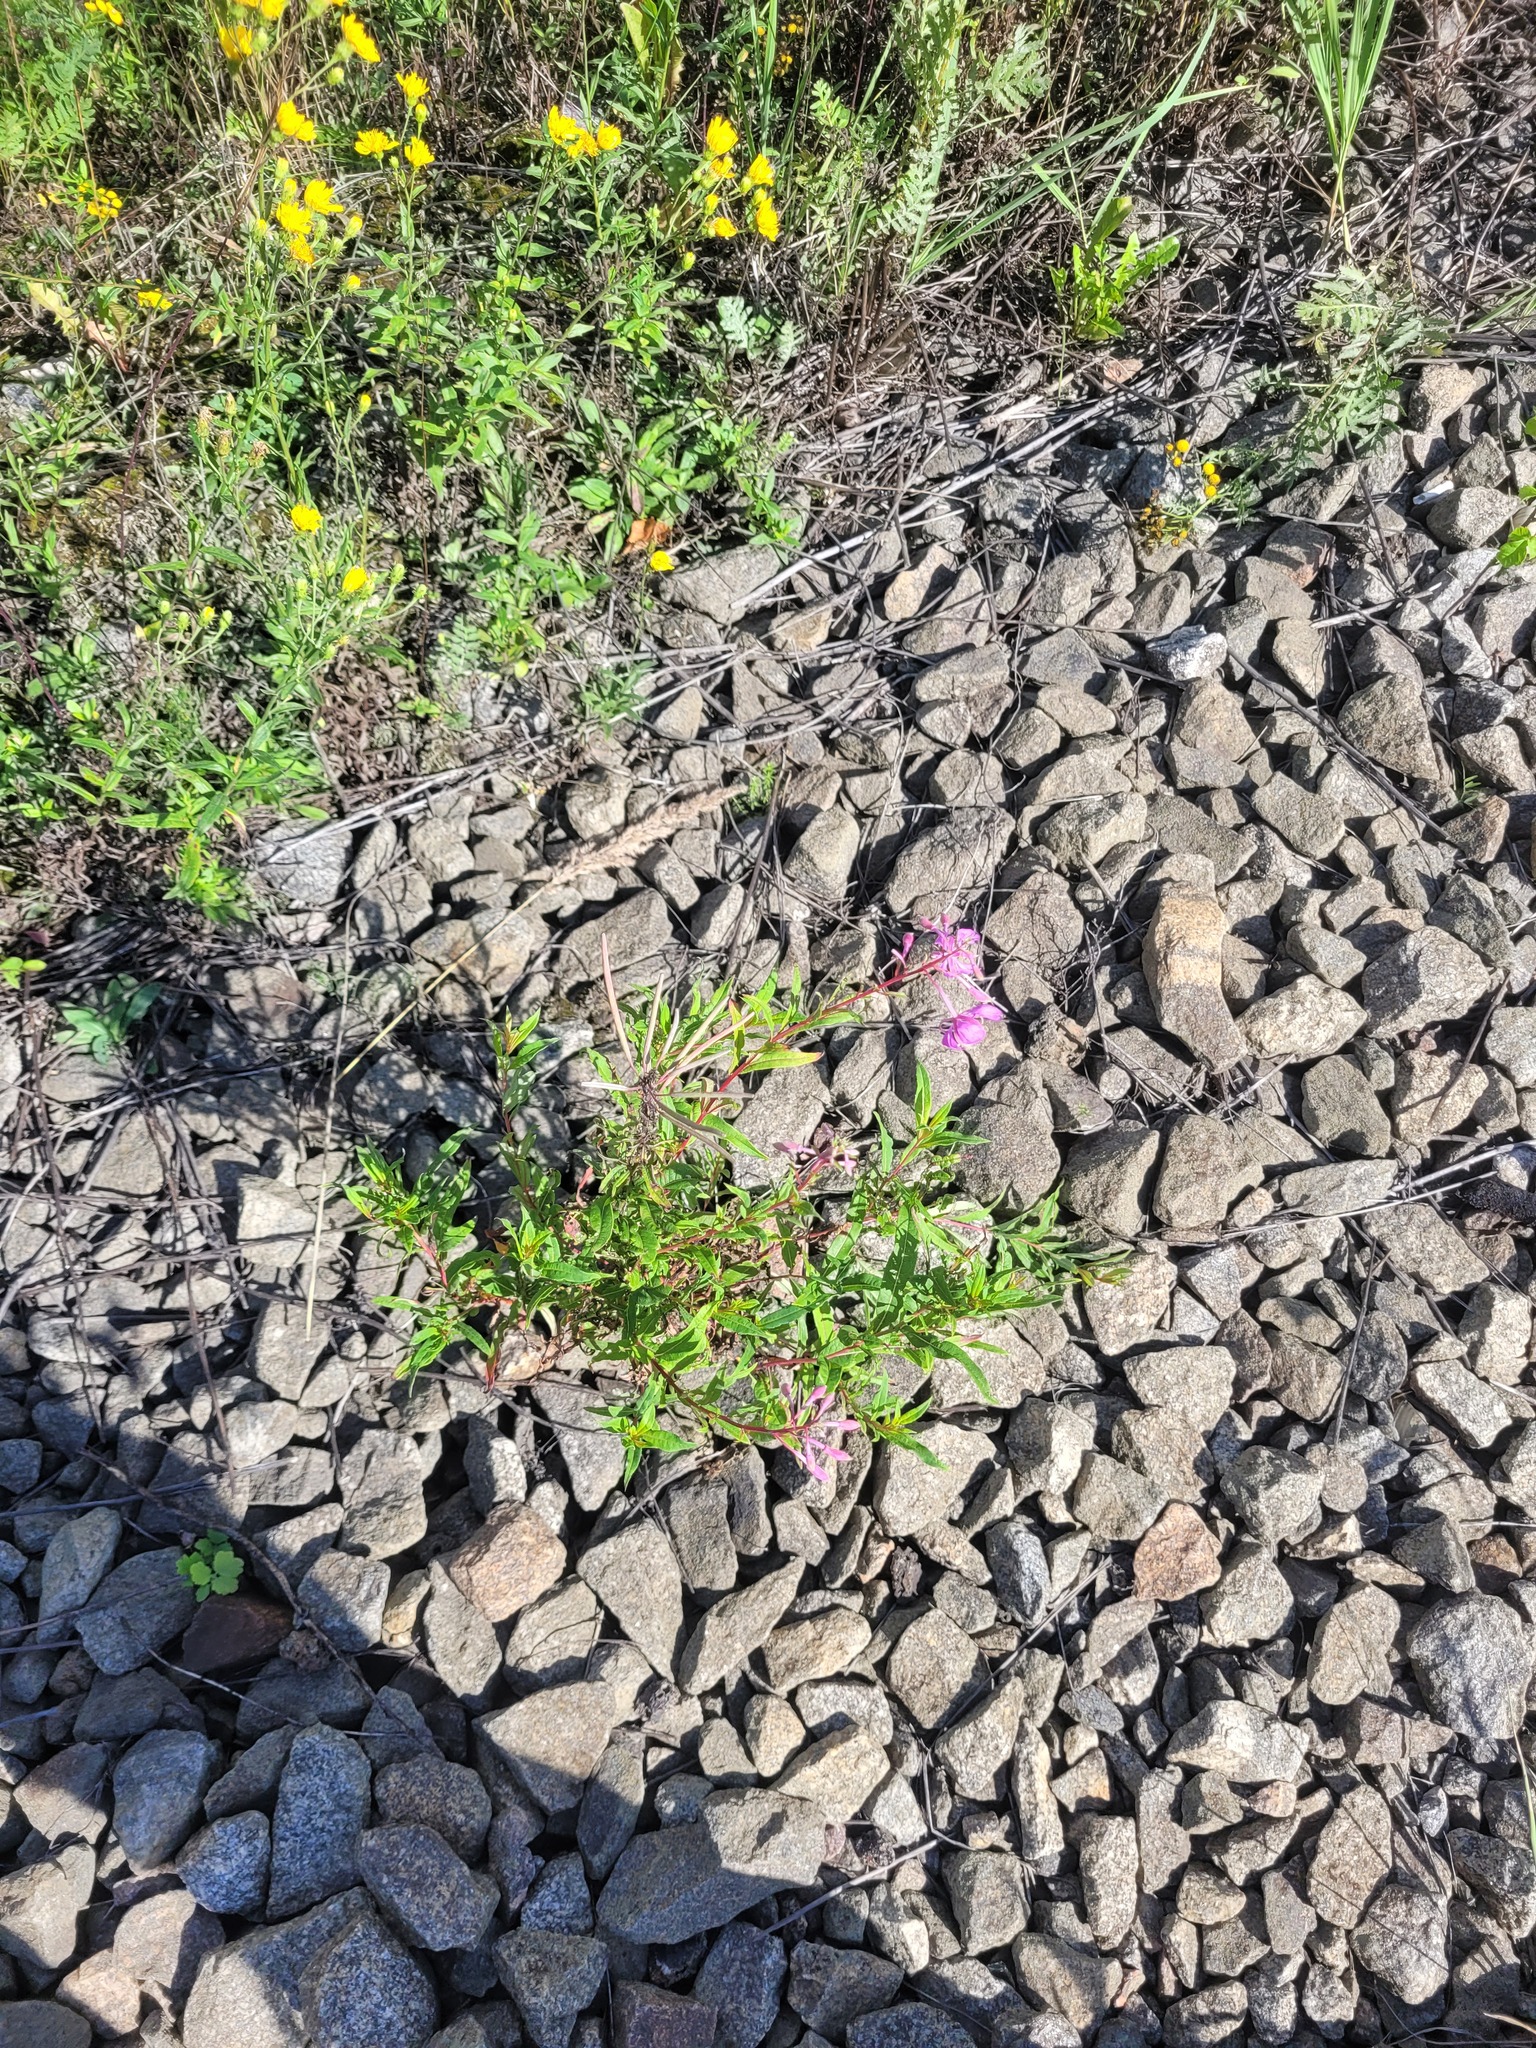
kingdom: Plantae
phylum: Tracheophyta
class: Magnoliopsida
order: Myrtales
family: Onagraceae
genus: Chamaenerion
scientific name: Chamaenerion angustifolium
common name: Fireweed
